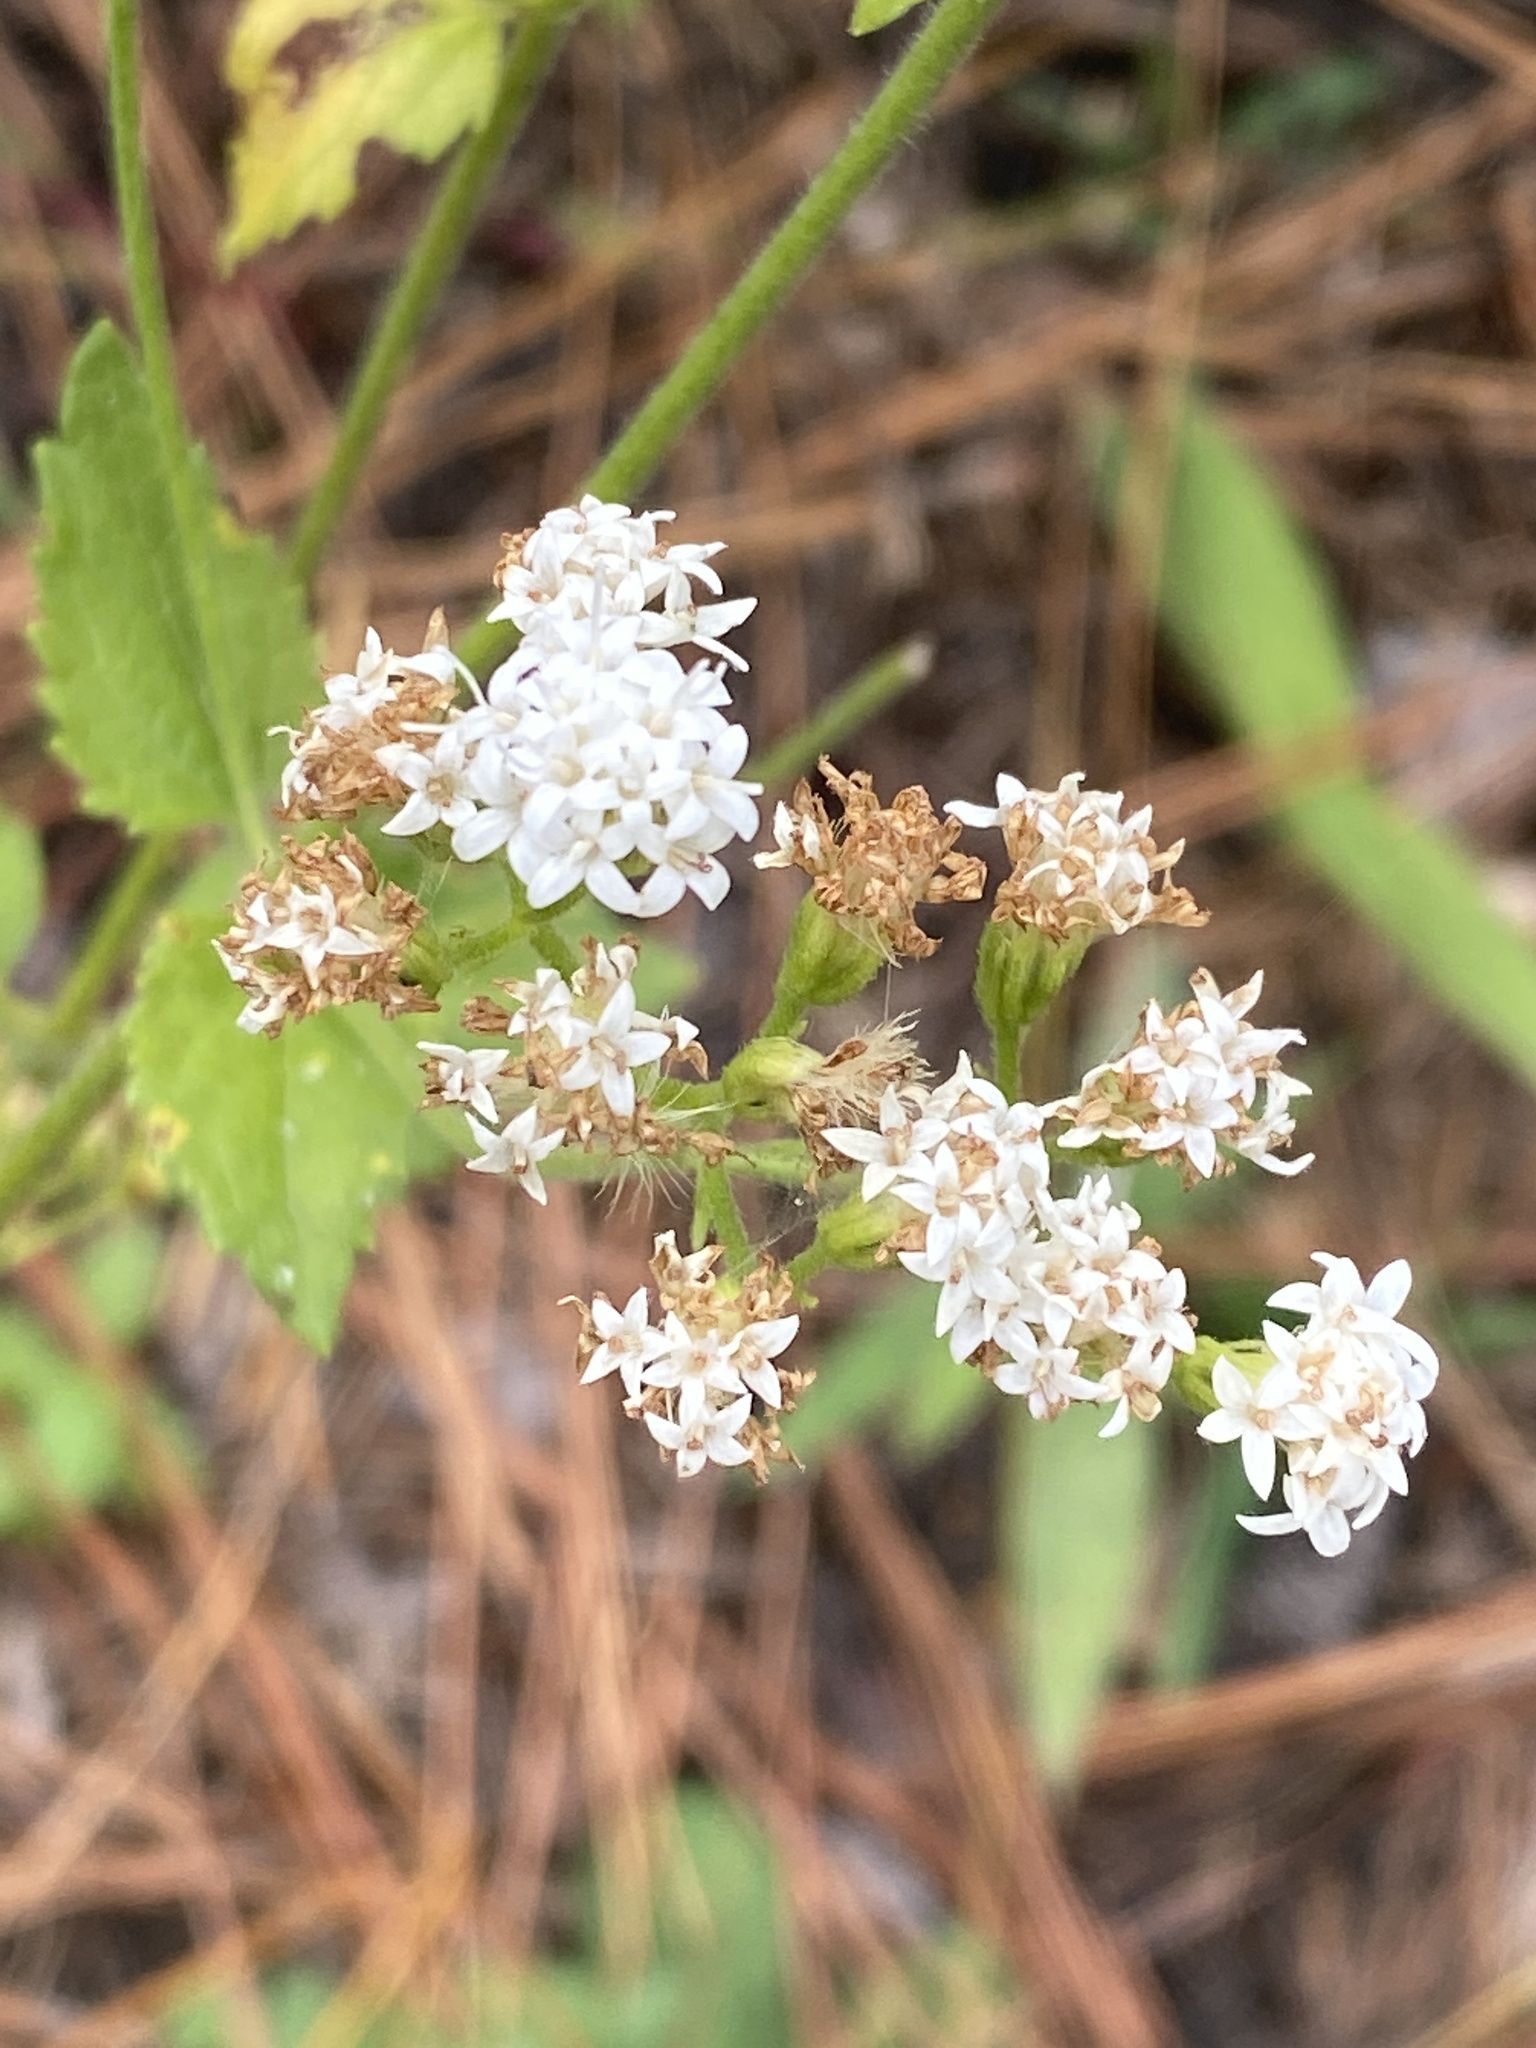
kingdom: Plantae
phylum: Tracheophyta
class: Magnoliopsida
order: Asterales
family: Asteraceae
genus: Eupatorium
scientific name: Eupatorium rotundifolium
